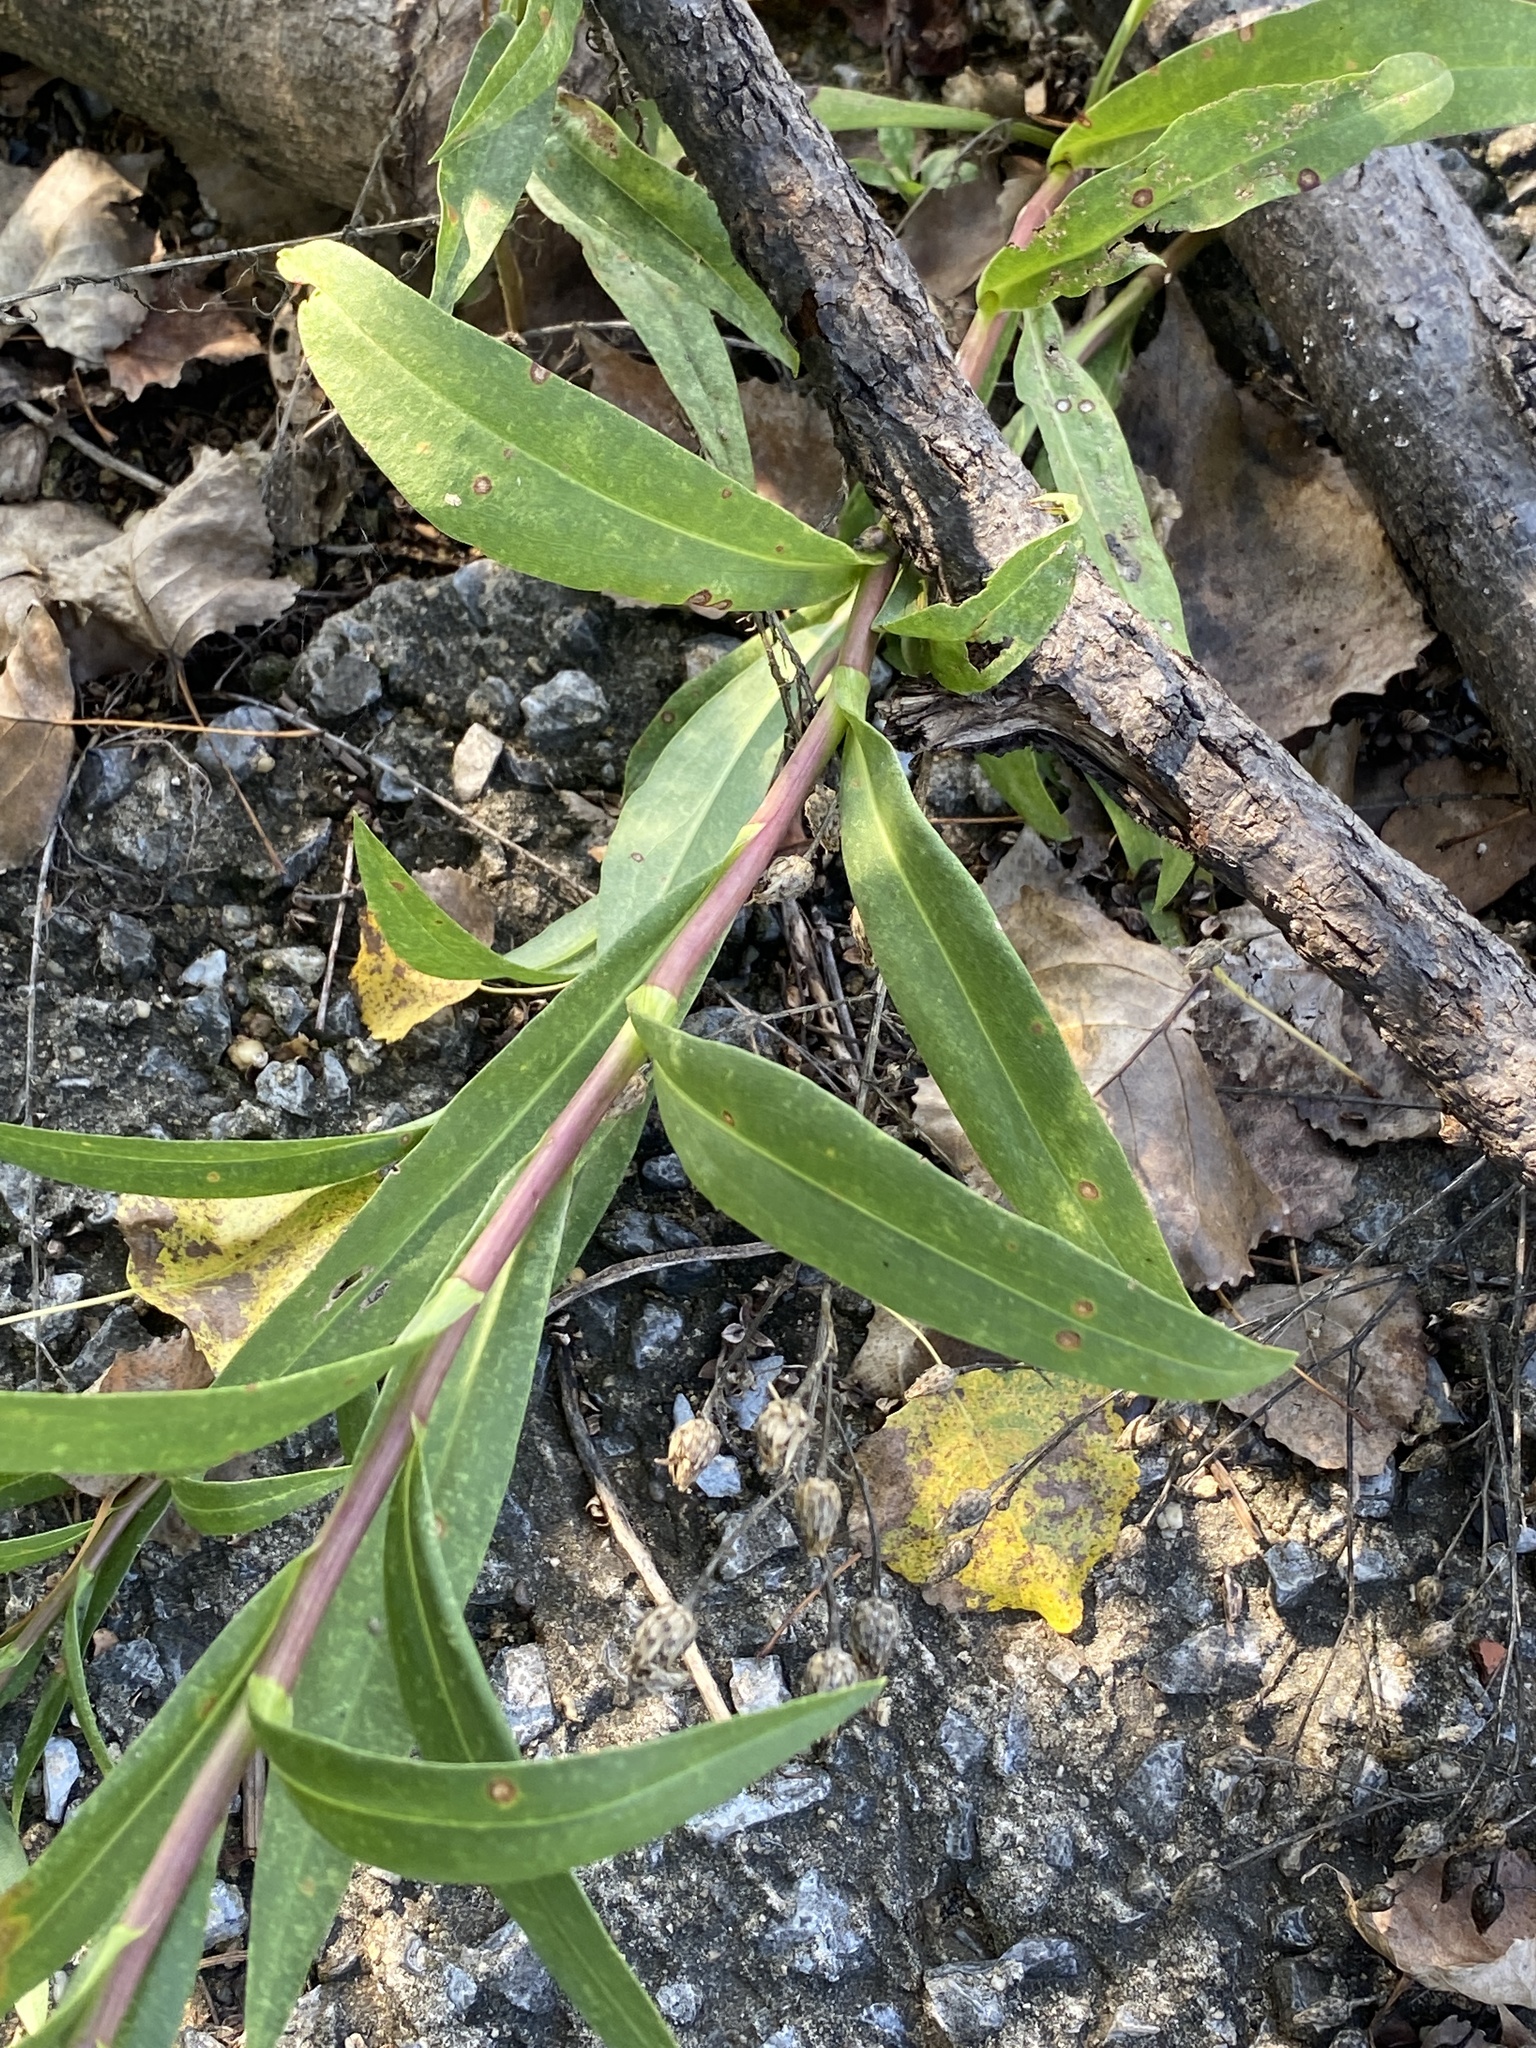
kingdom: Plantae
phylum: Tracheophyta
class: Magnoliopsida
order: Asterales
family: Asteraceae
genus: Solidago
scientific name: Solidago sempervirens
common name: Salt-marsh goldenrod
